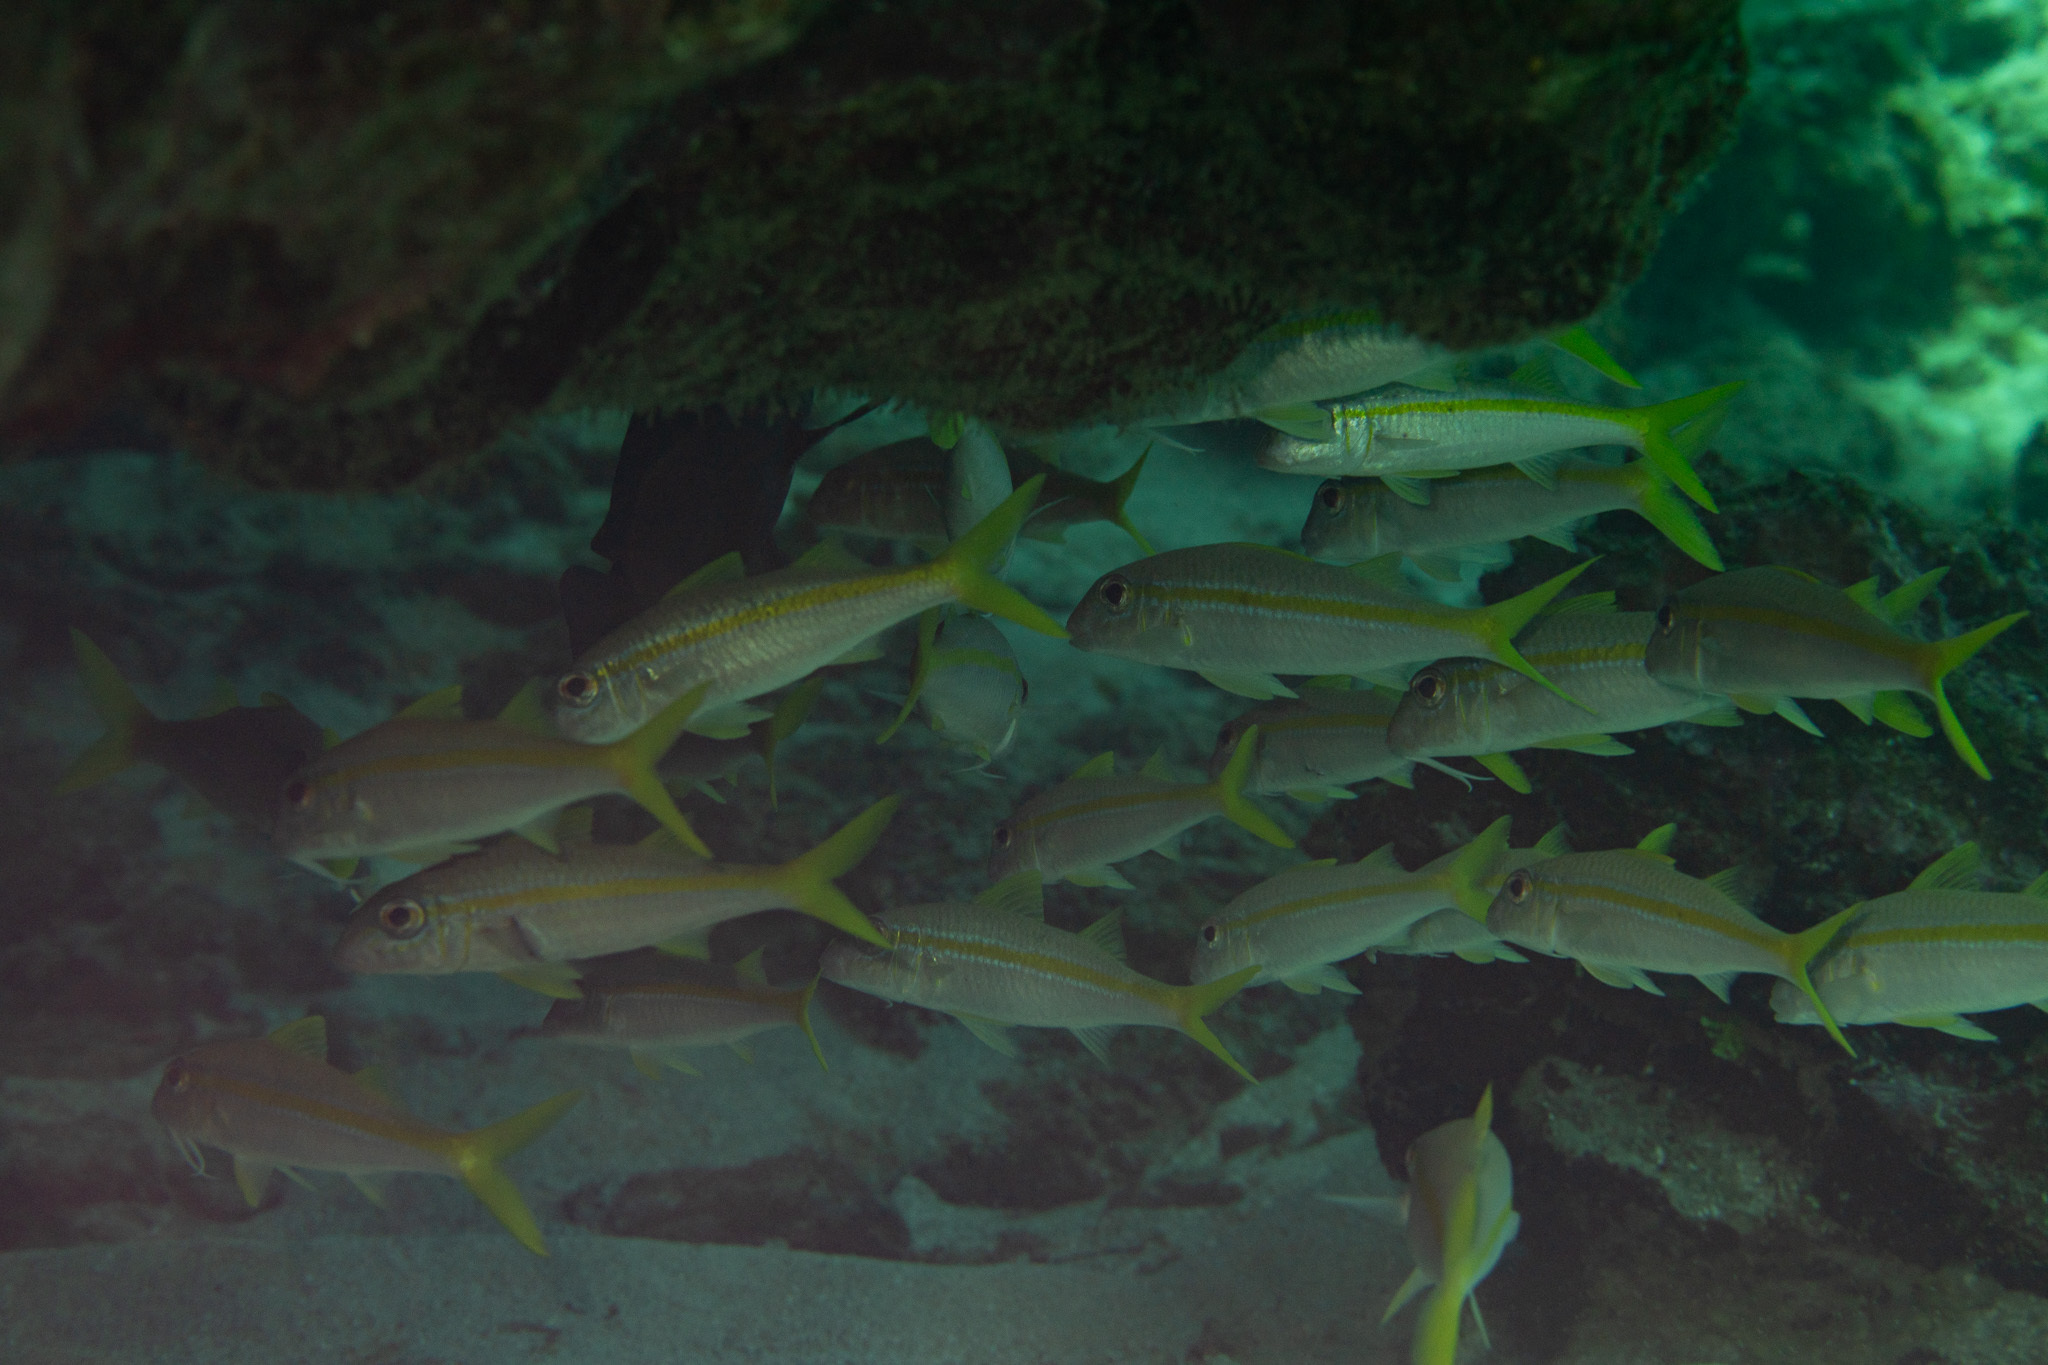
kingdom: Animalia
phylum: Chordata
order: Perciformes
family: Mullidae
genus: Mulloidichthys
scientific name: Mulloidichthys martinicus
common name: Yellow goatfish
